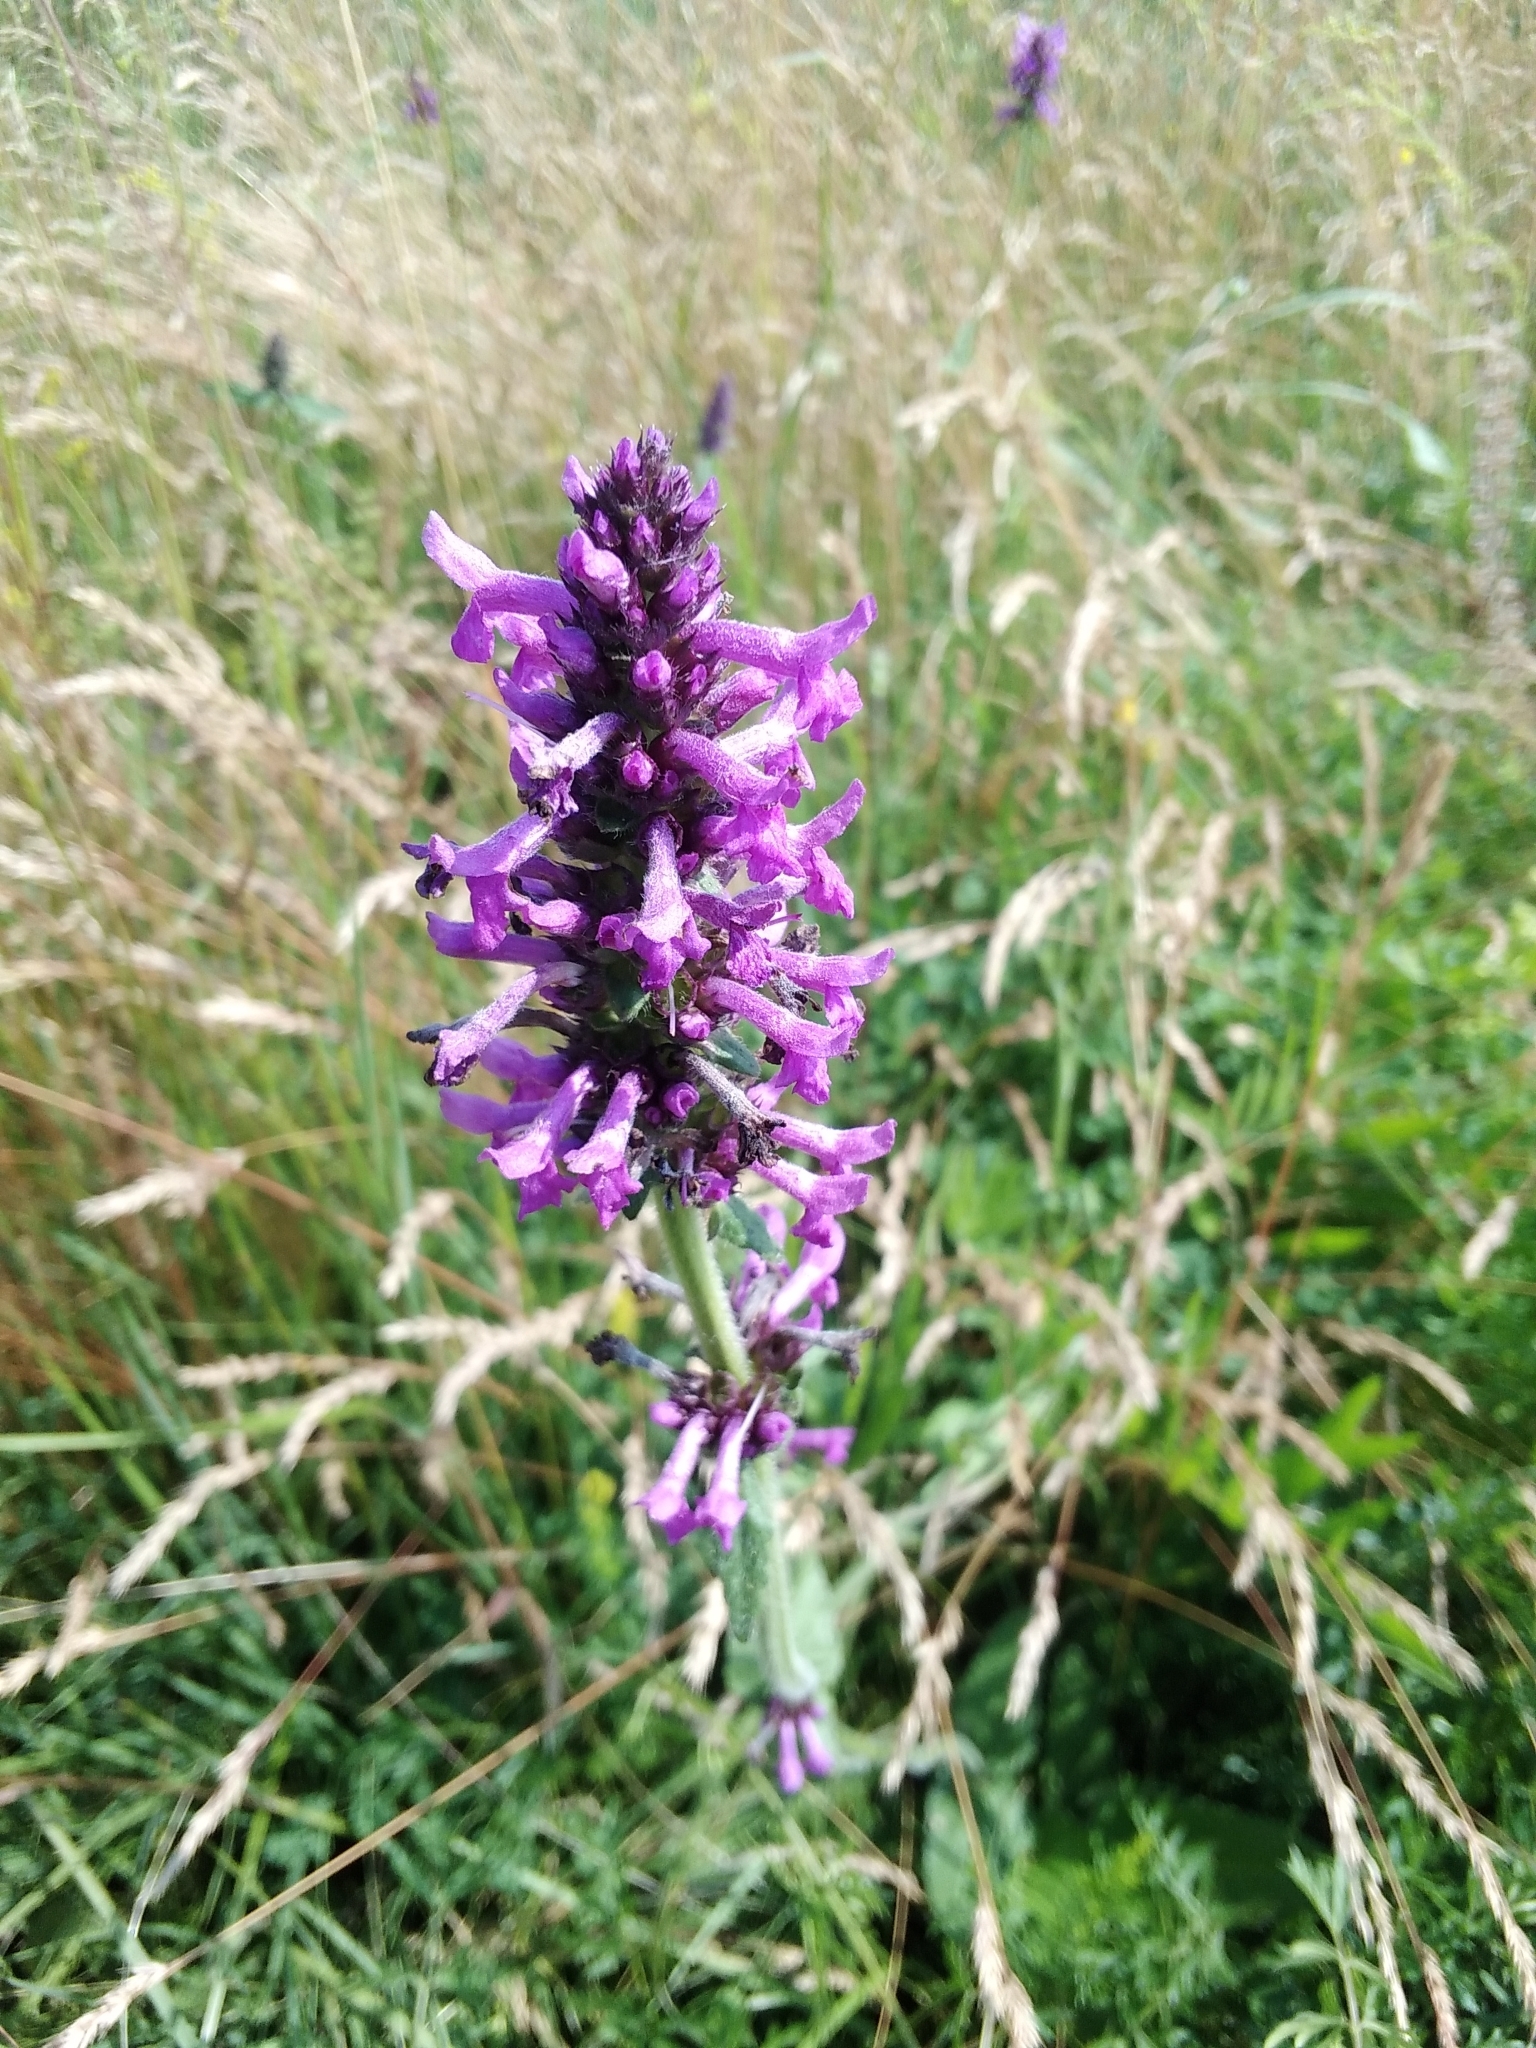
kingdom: Plantae
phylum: Tracheophyta
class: Magnoliopsida
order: Lamiales
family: Lamiaceae
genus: Betonica
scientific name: Betonica officinalis
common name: Bishop's-wort
